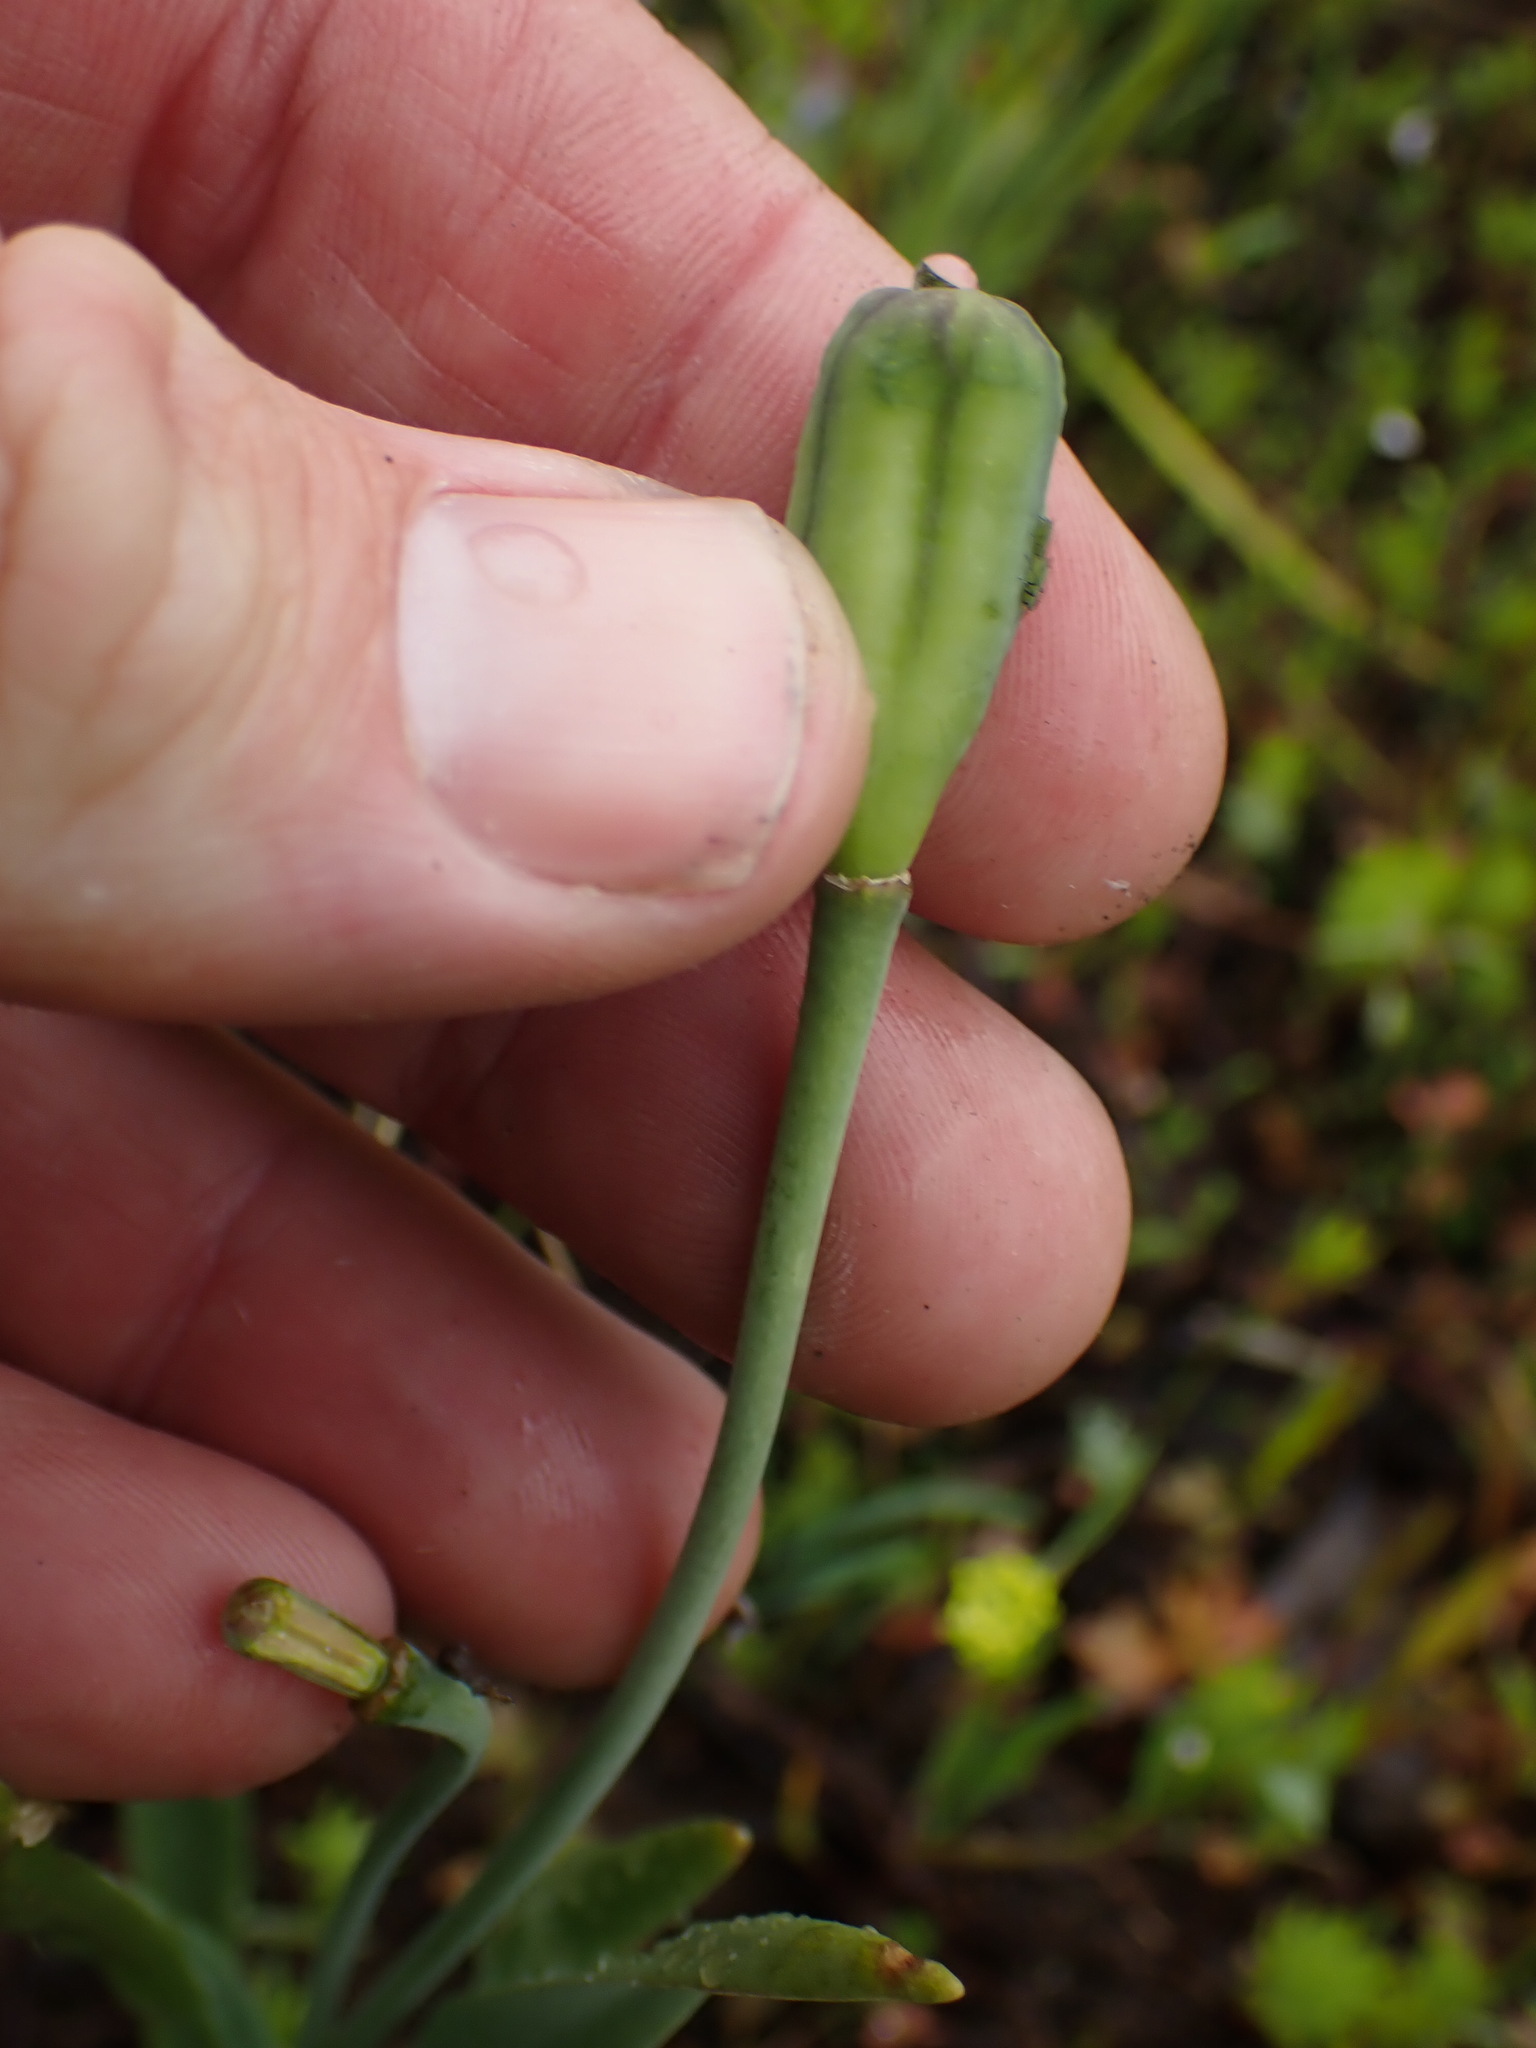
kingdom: Plantae
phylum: Tracheophyta
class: Liliopsida
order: Liliales
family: Liliaceae
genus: Fritillaria
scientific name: Fritillaria pudica
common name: Yellow fritillary
